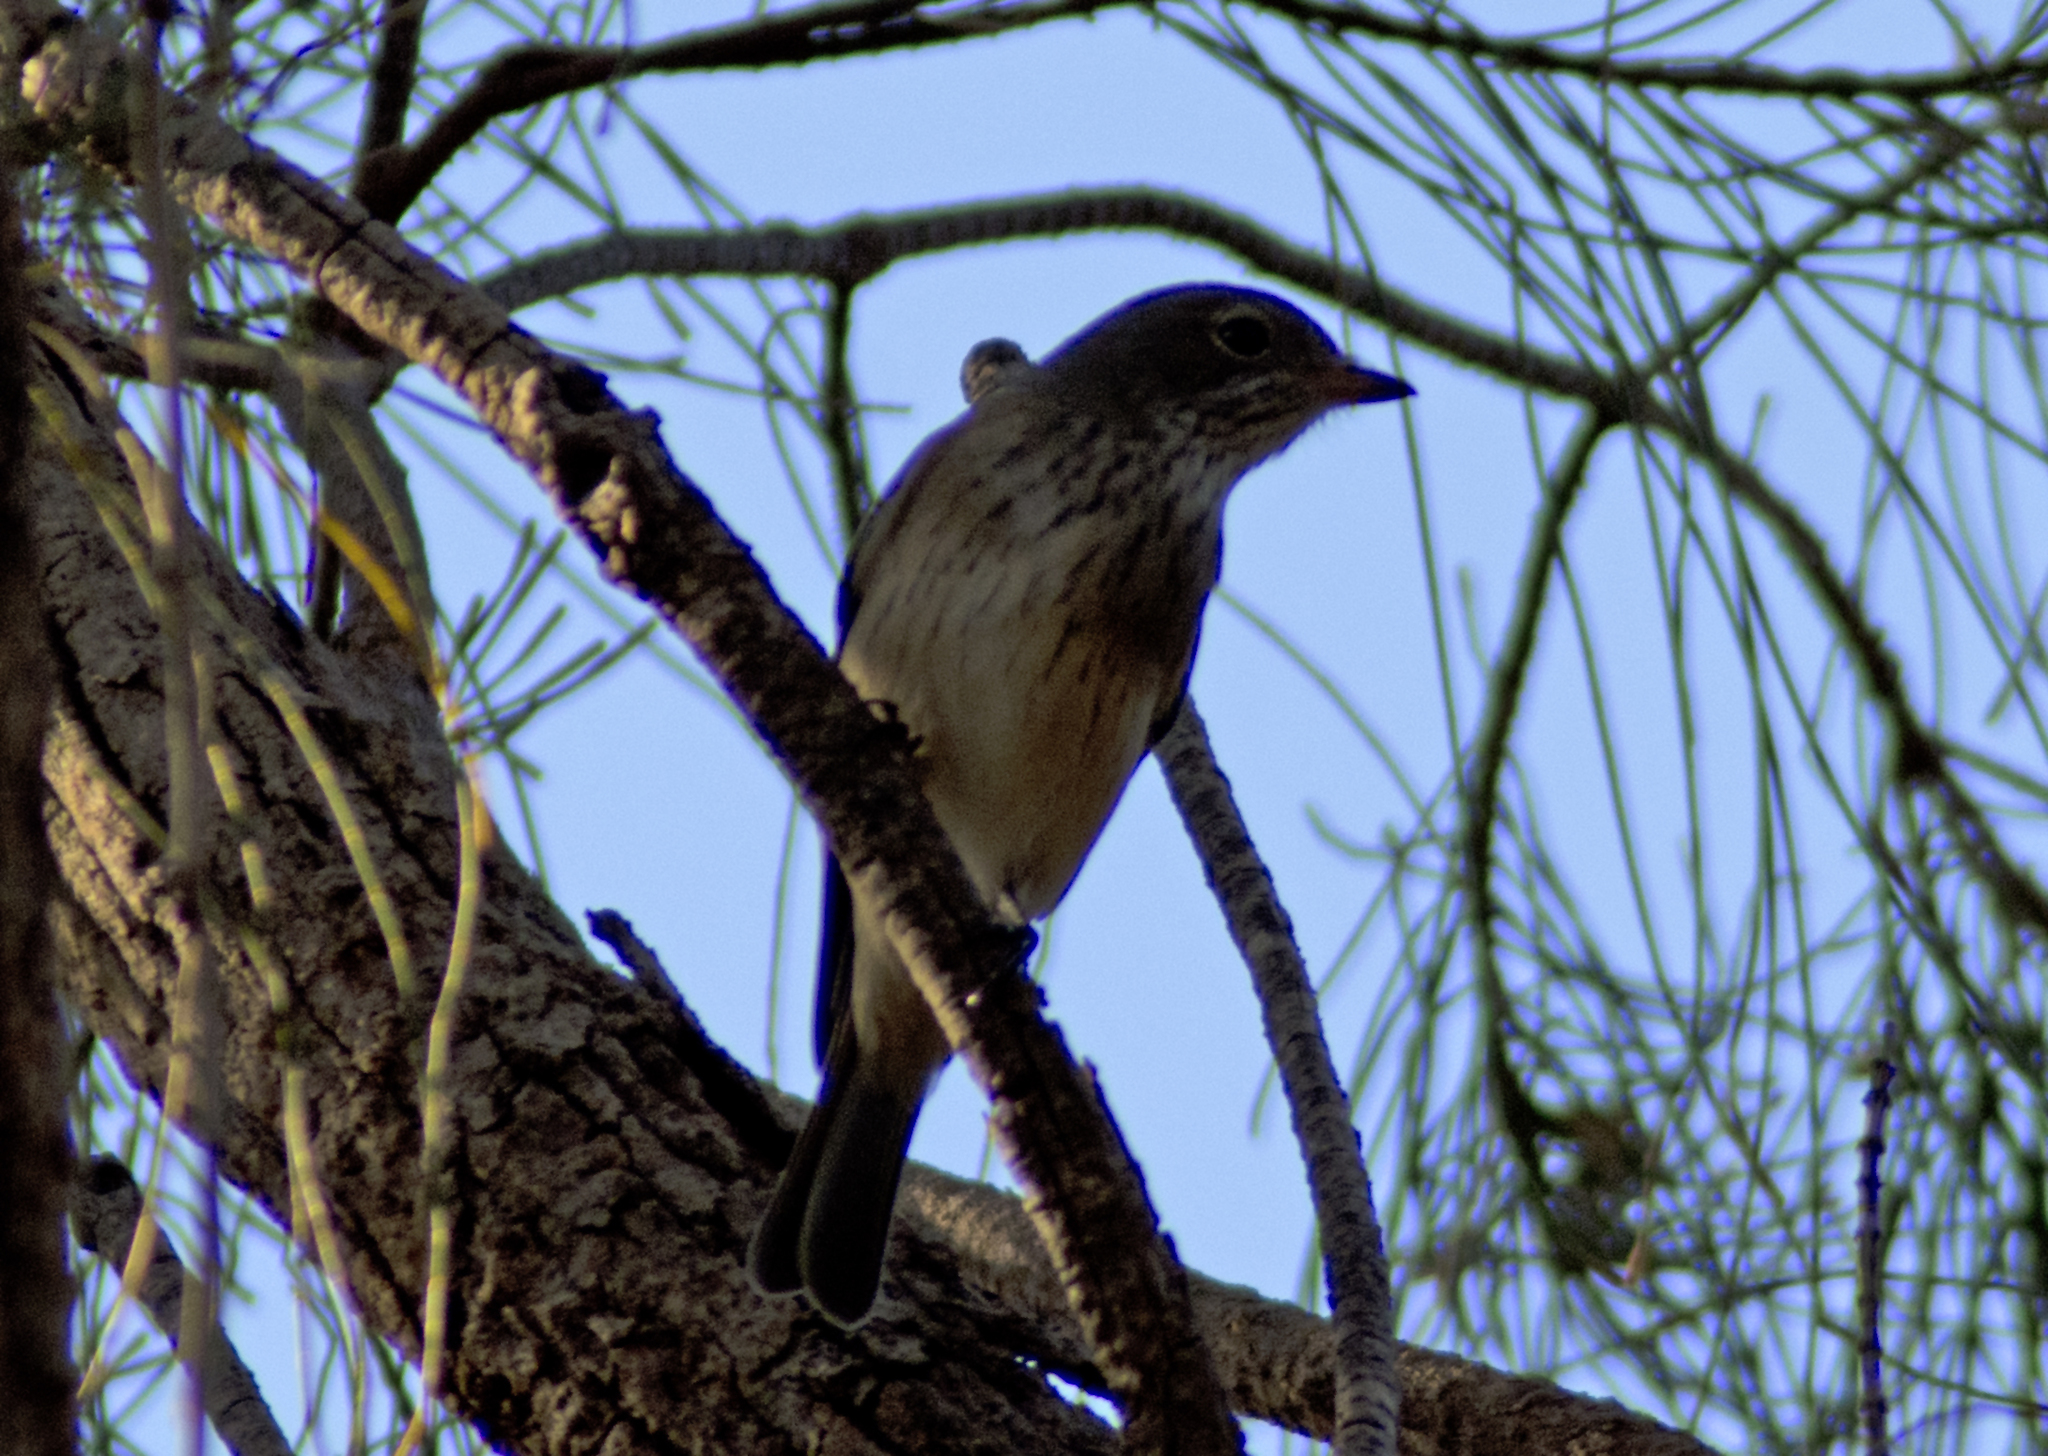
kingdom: Animalia
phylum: Chordata
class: Aves
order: Passeriformes
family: Pachycephalidae
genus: Pachycephala
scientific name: Pachycephala rufiventris
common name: Rufous whistler
